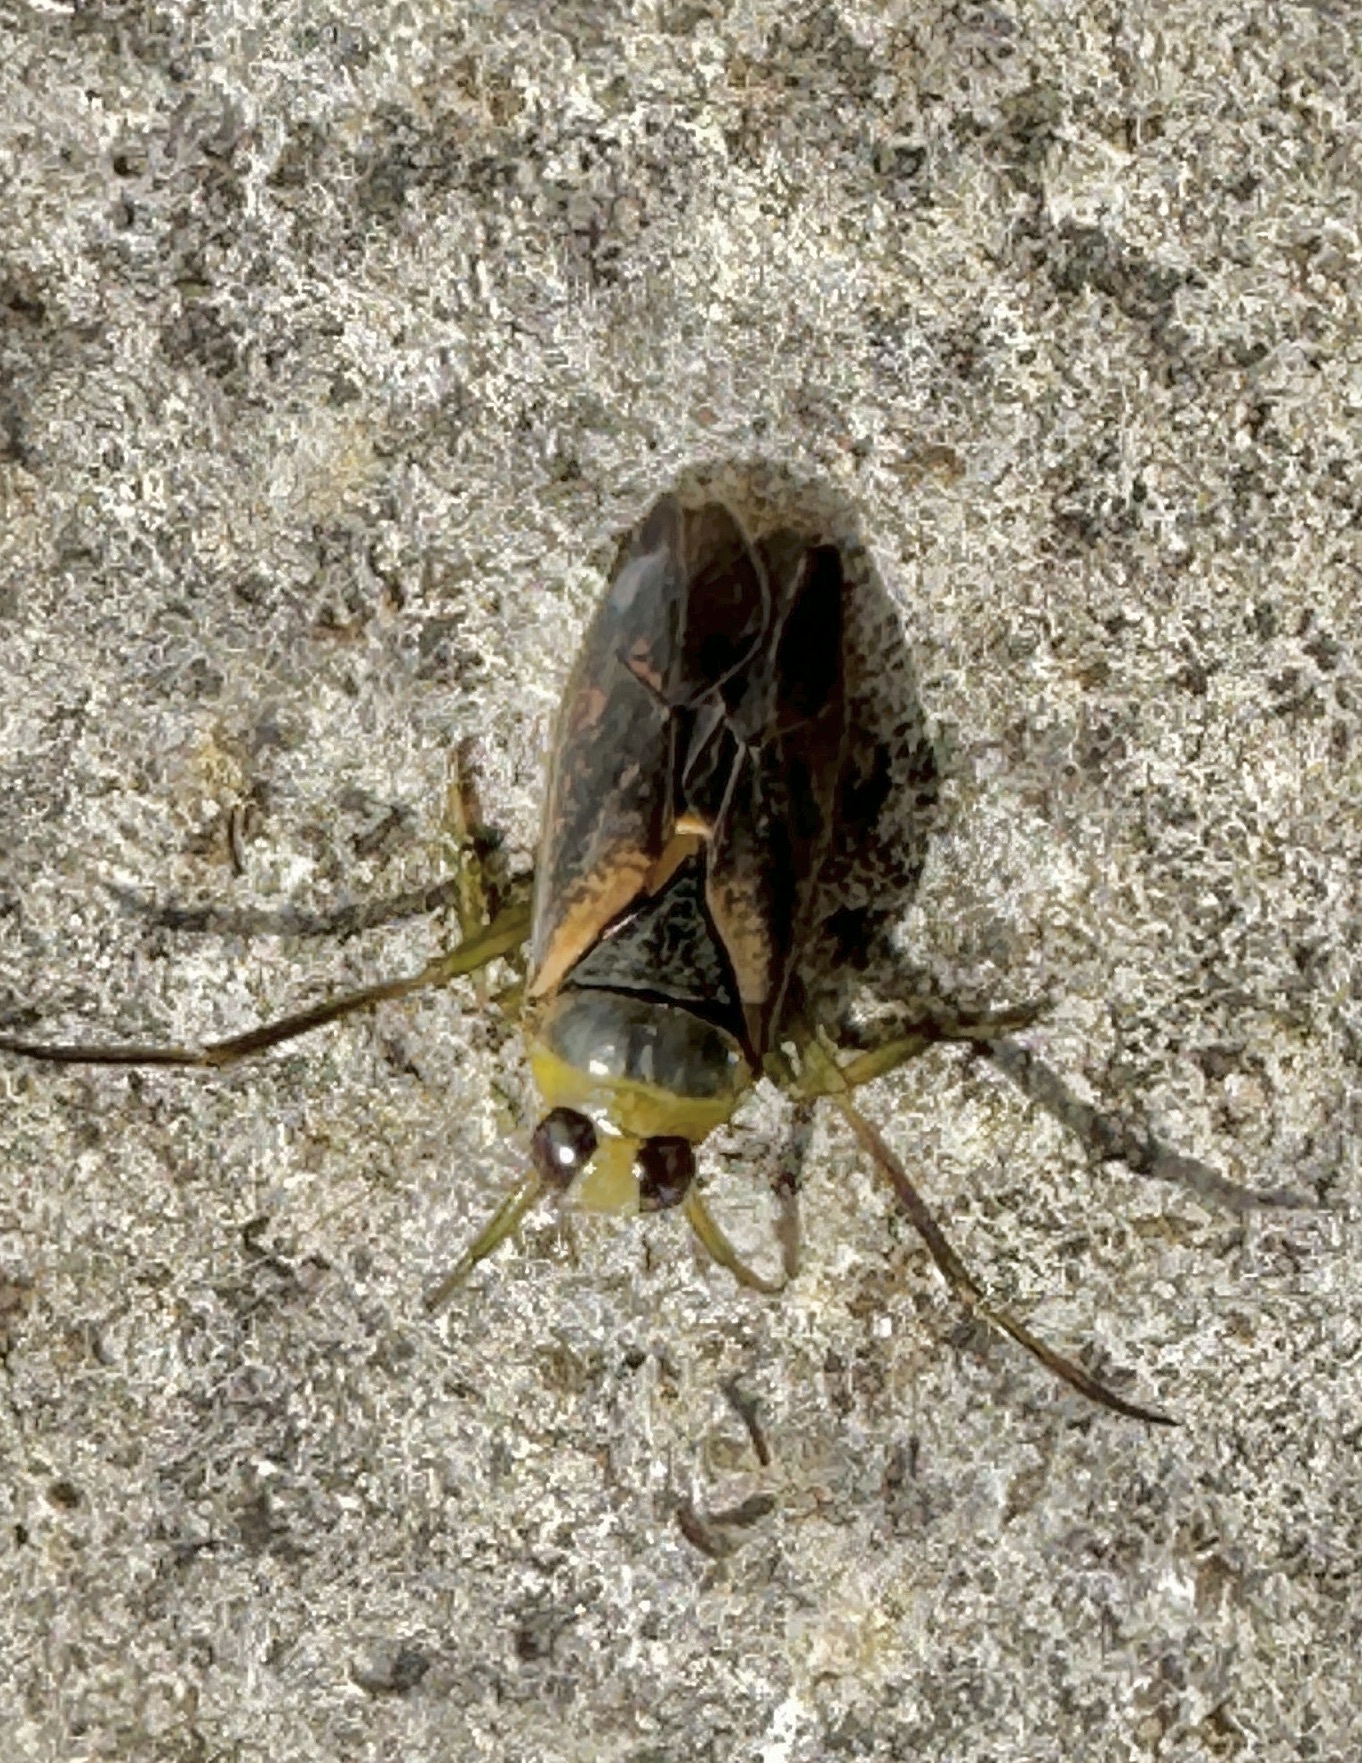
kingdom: Animalia
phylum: Arthropoda
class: Insecta
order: Hemiptera
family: Notonectidae
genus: Notonecta
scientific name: Notonecta maculata
